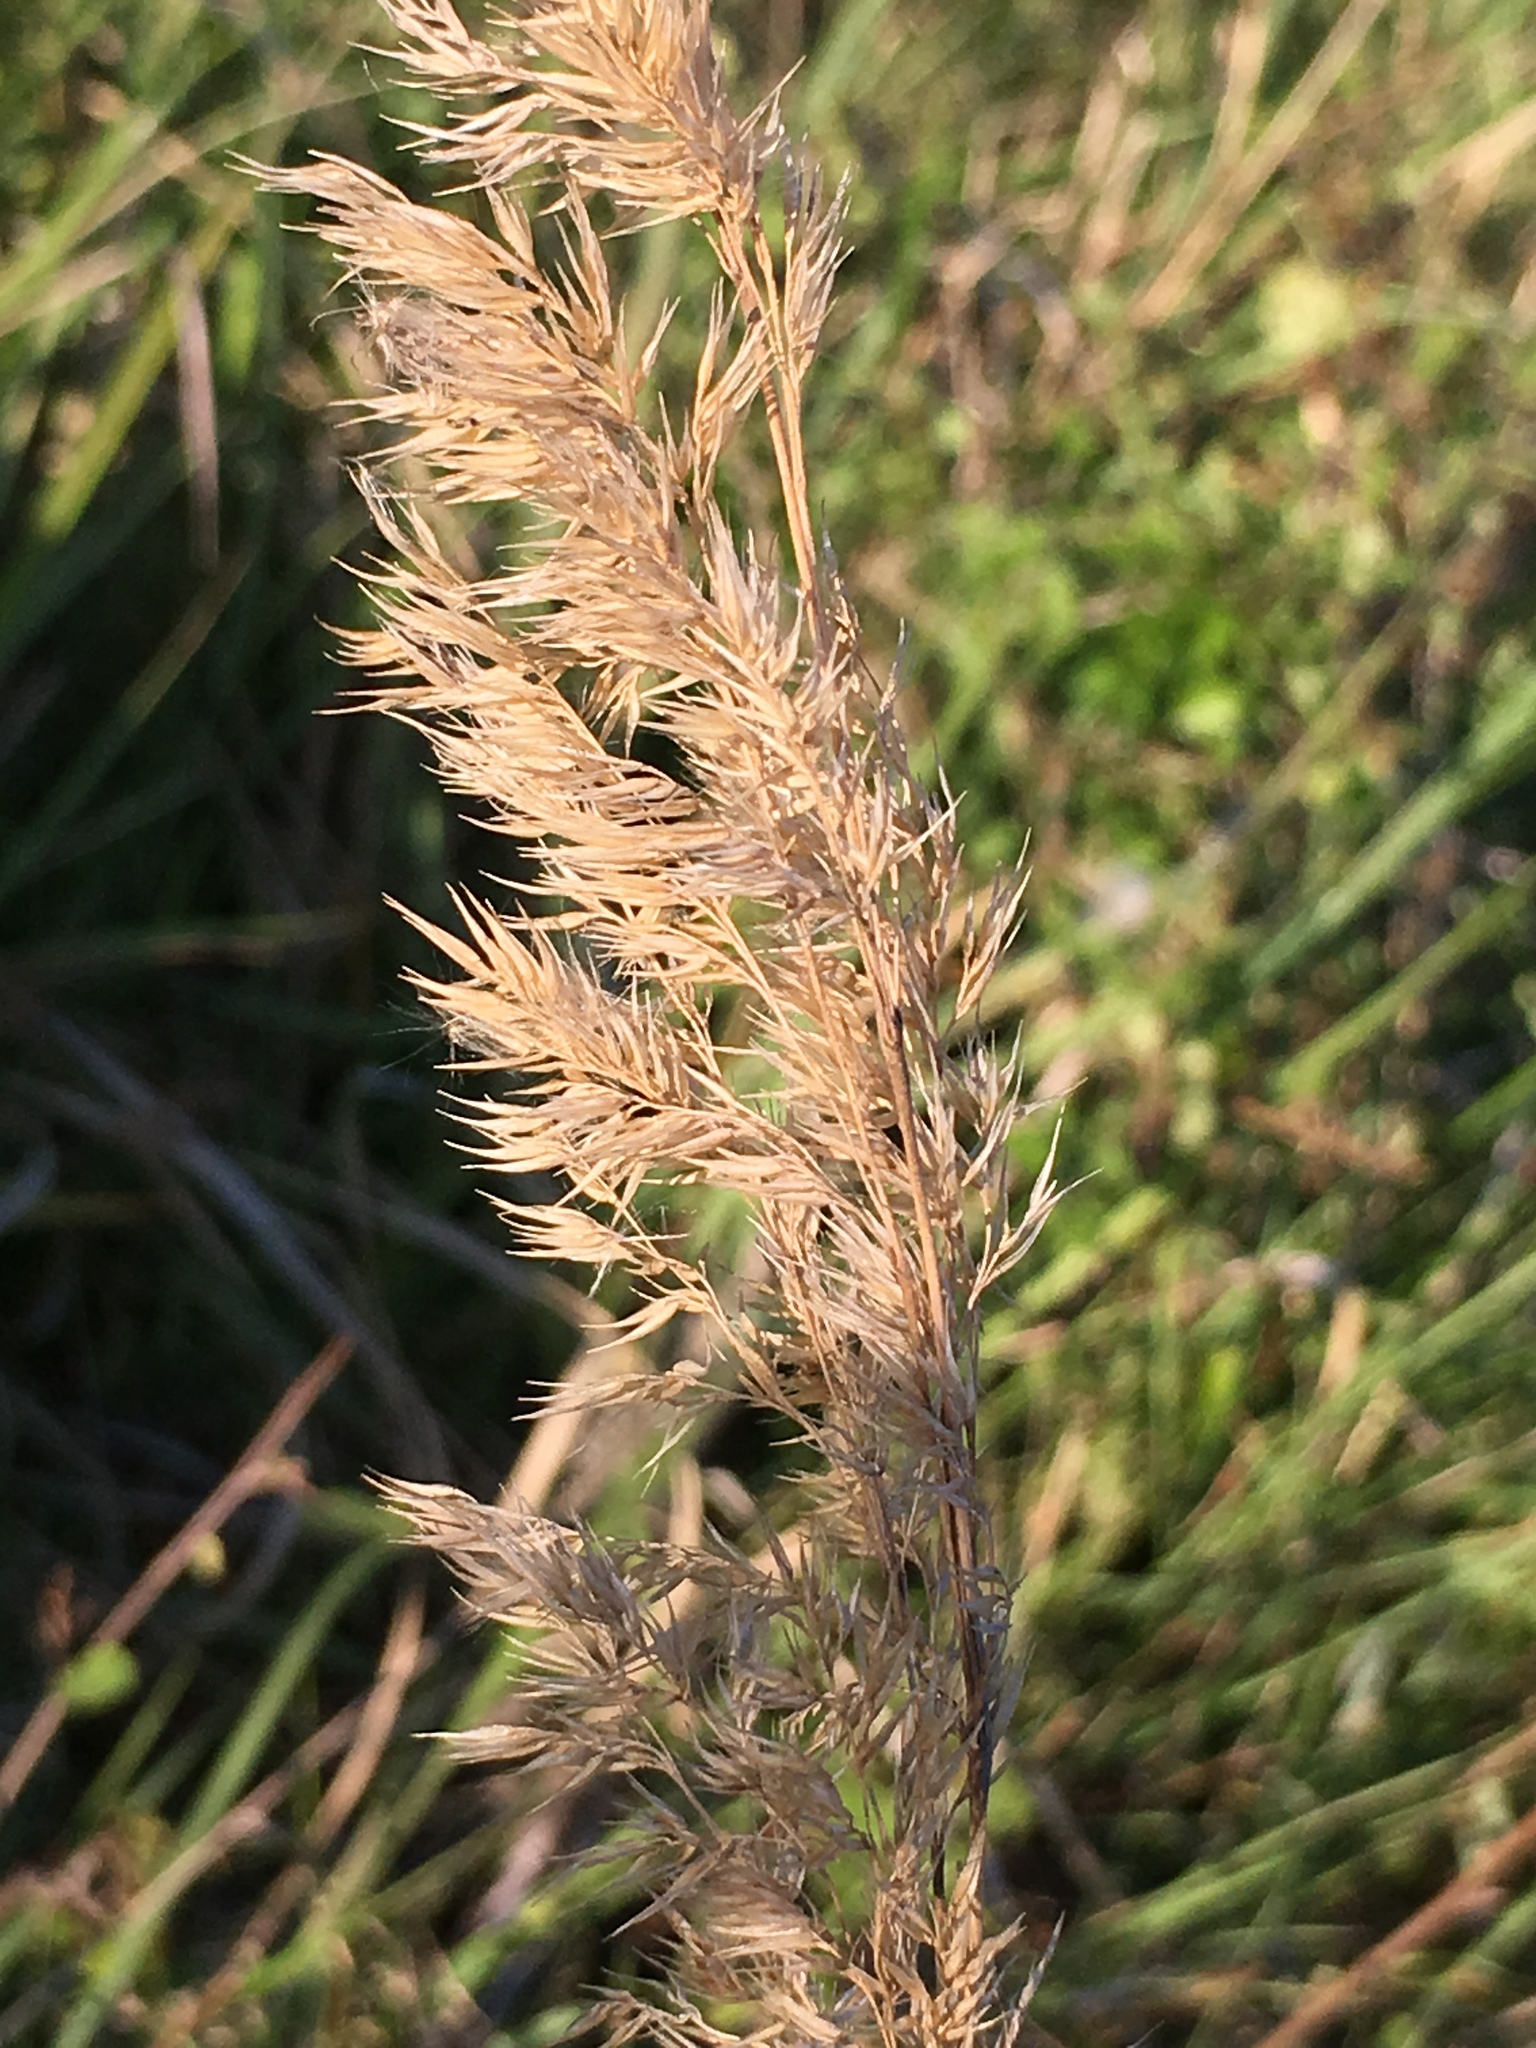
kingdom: Plantae
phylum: Tracheophyta
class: Liliopsida
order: Poales
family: Poaceae
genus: Calamagrostis
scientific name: Calamagrostis epigejos
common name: Wood small-reed
